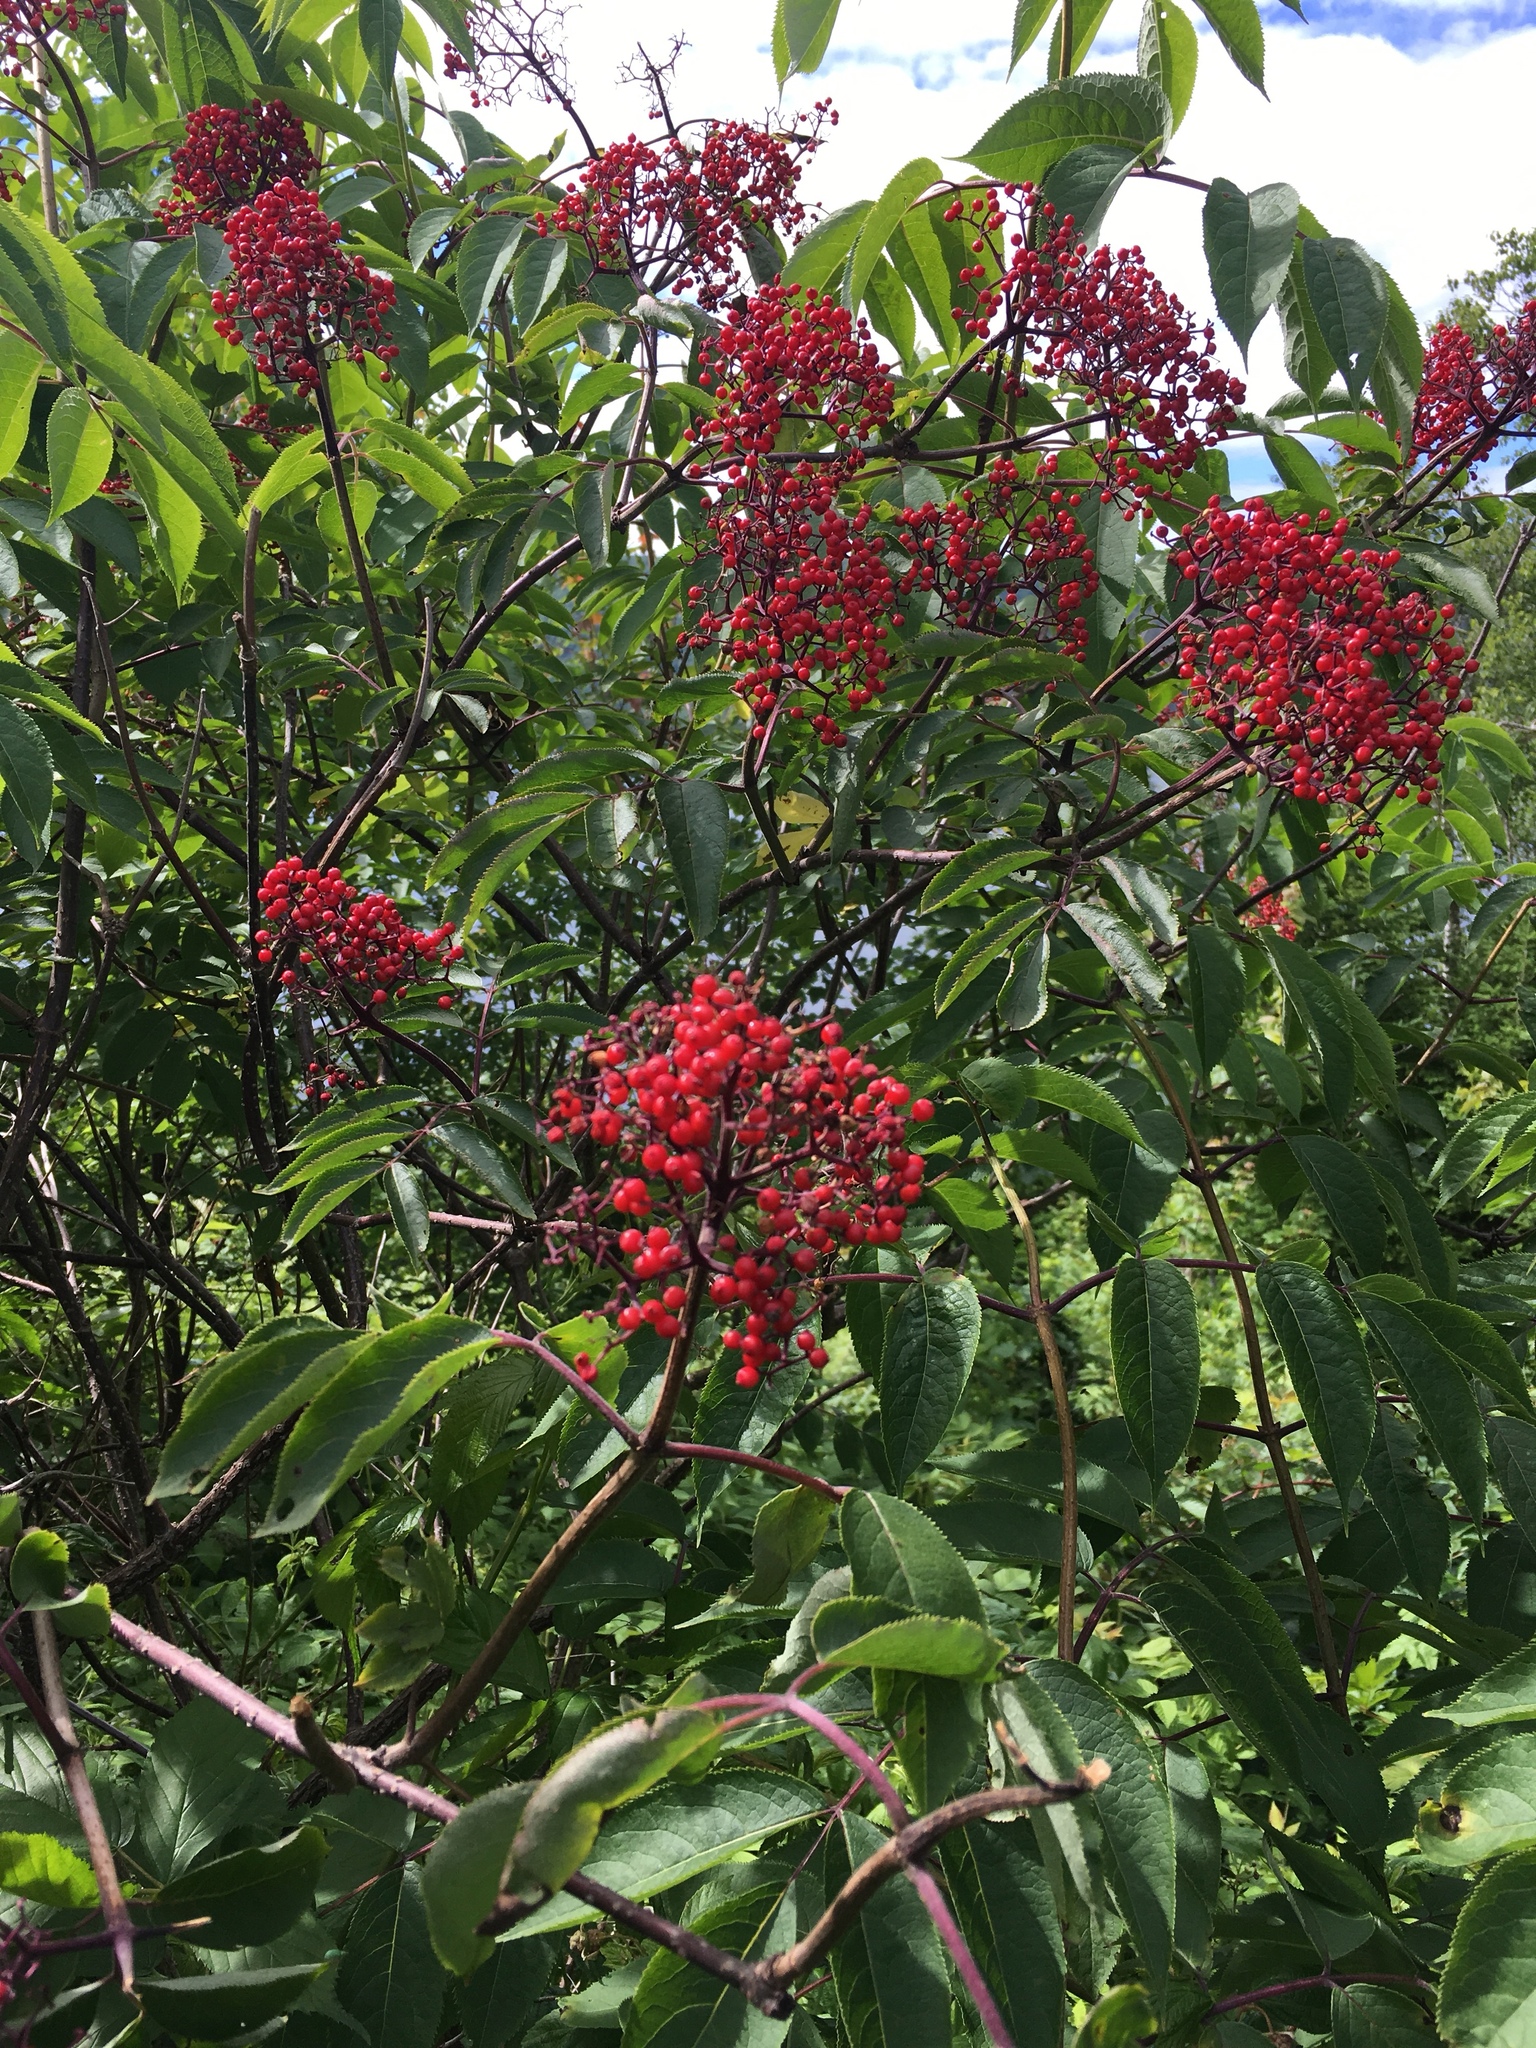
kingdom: Plantae
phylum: Tracheophyta
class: Magnoliopsida
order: Dipsacales
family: Viburnaceae
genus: Sambucus
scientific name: Sambucus racemosa
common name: Red-berried elder
